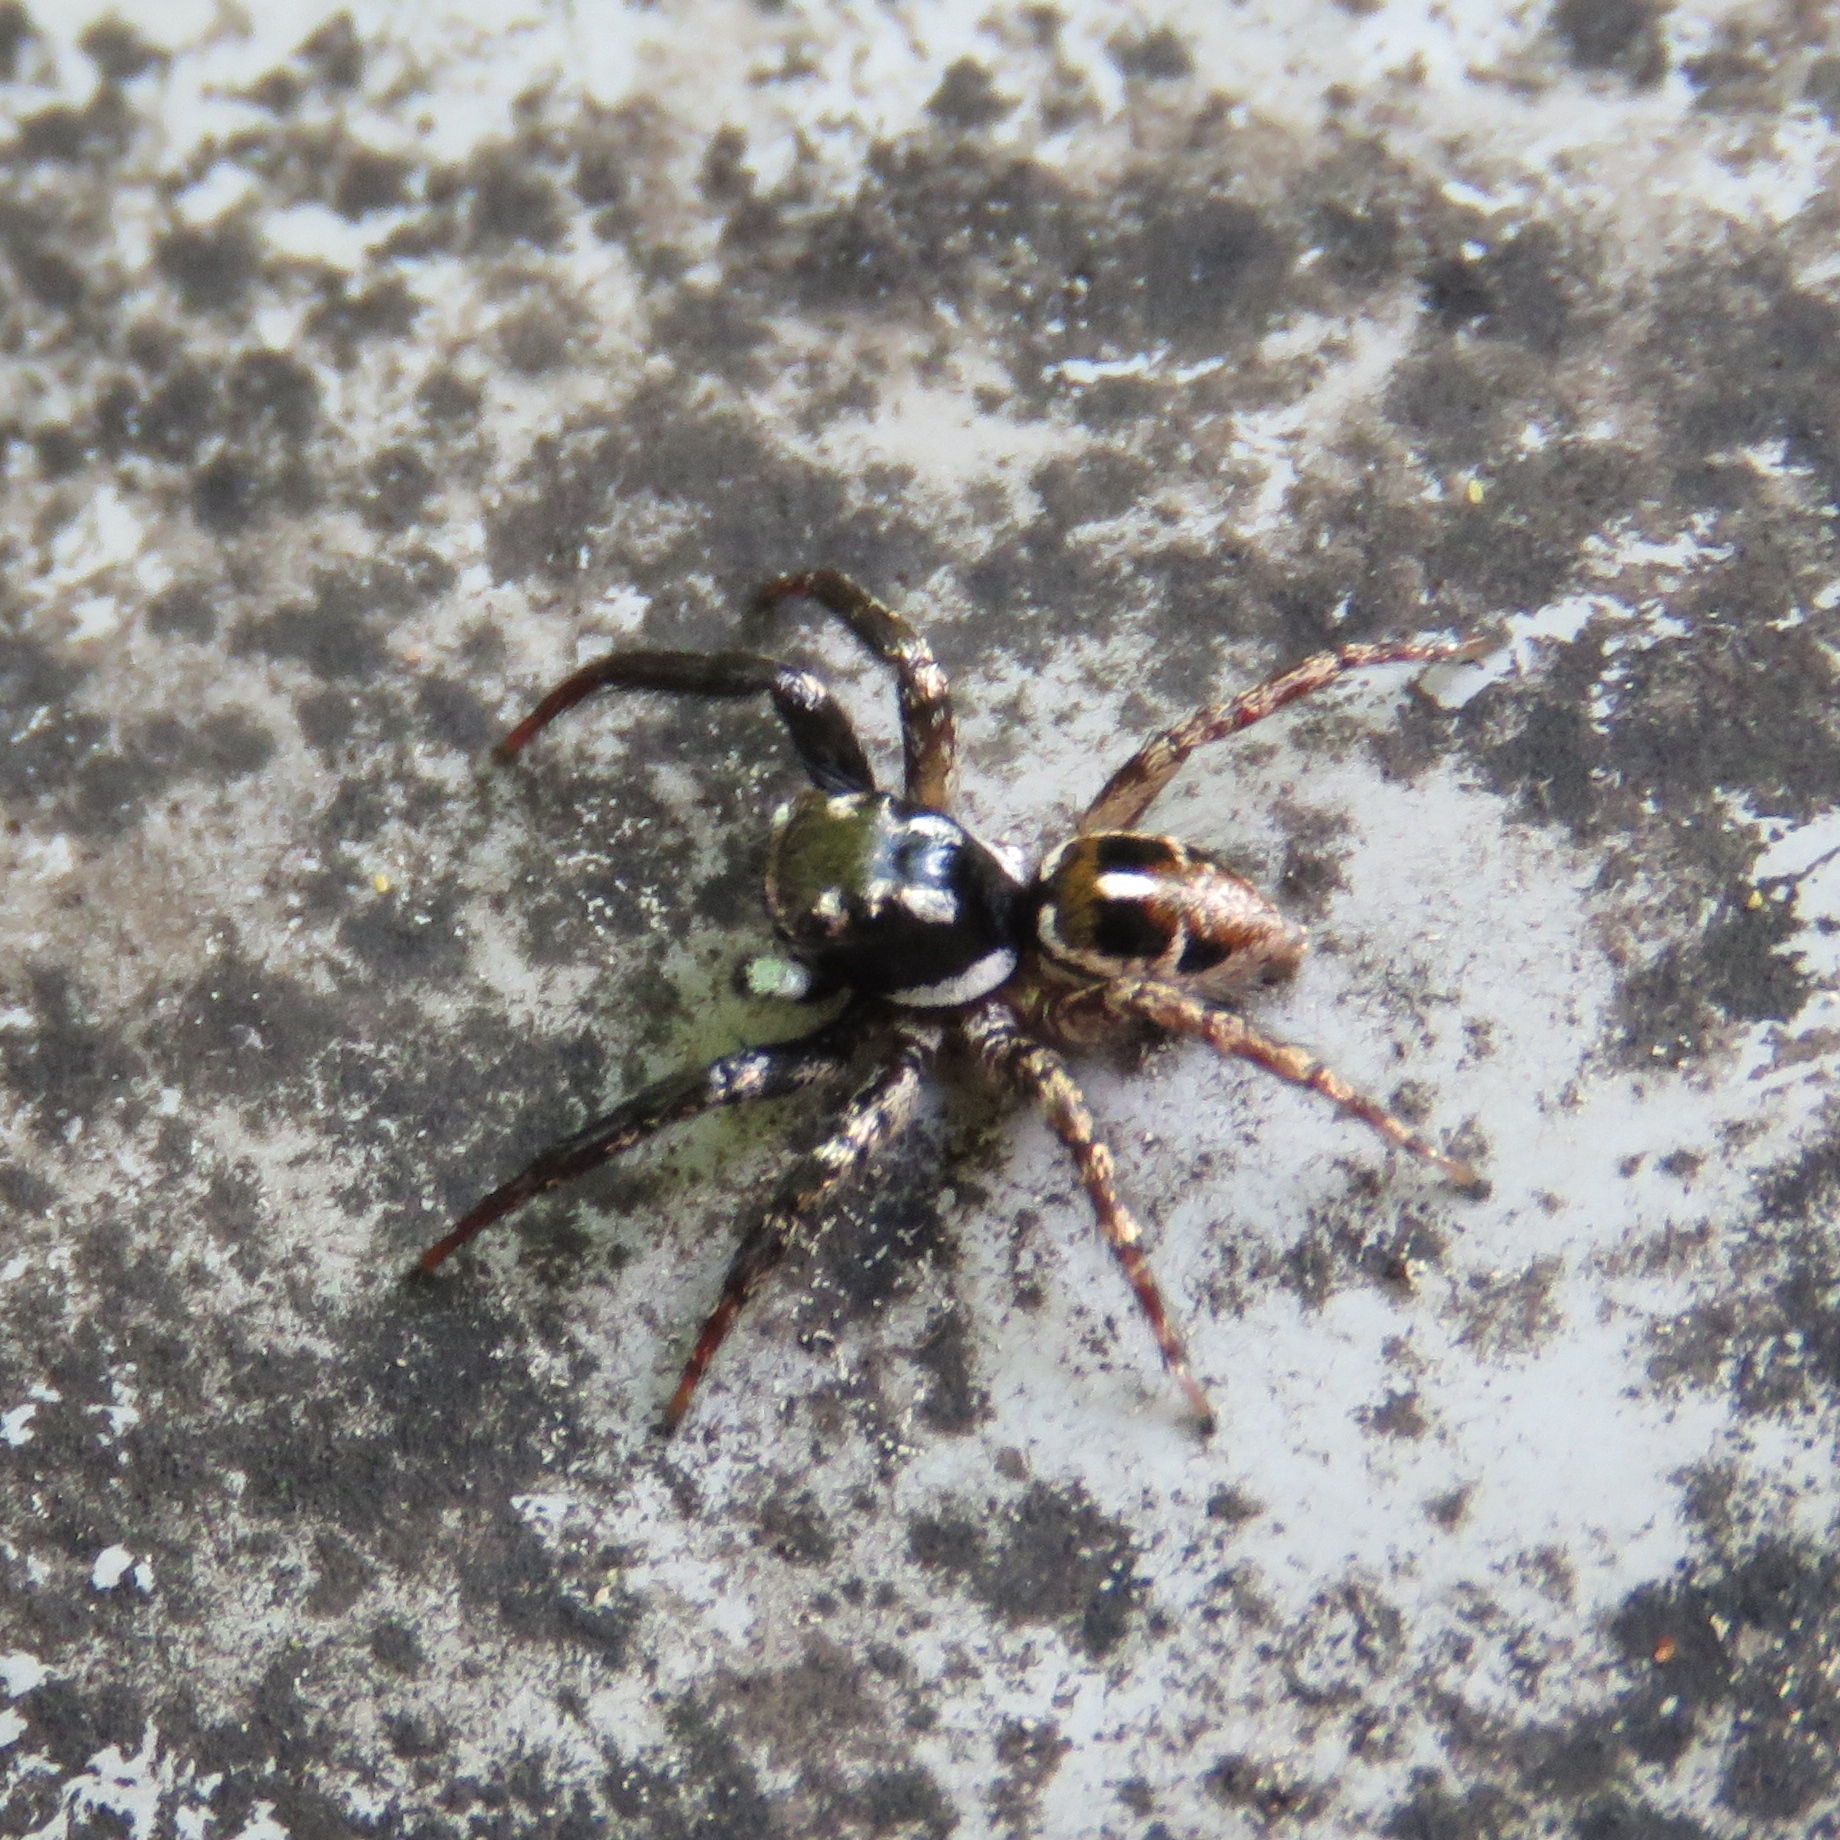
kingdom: Animalia
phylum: Arthropoda
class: Arachnida
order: Araneae
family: Salticidae
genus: Anasaitis
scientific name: Anasaitis canosa
